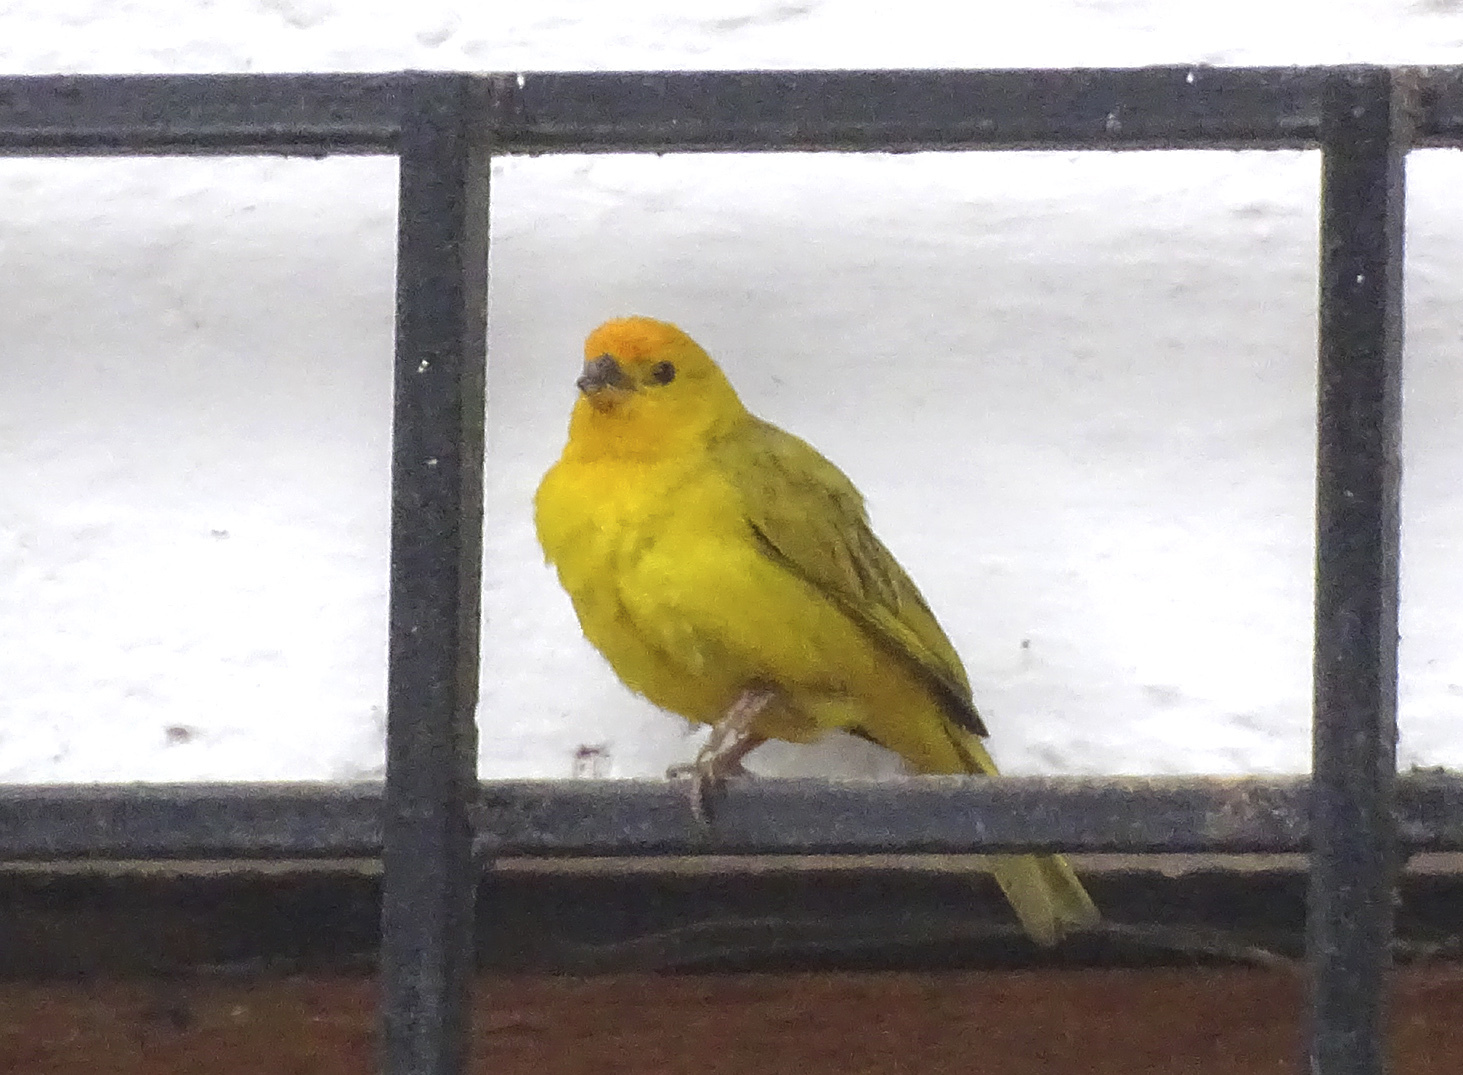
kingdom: Animalia
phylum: Chordata
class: Aves
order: Passeriformes
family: Thraupidae
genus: Sicalis
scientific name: Sicalis flaveola
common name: Saffron finch
